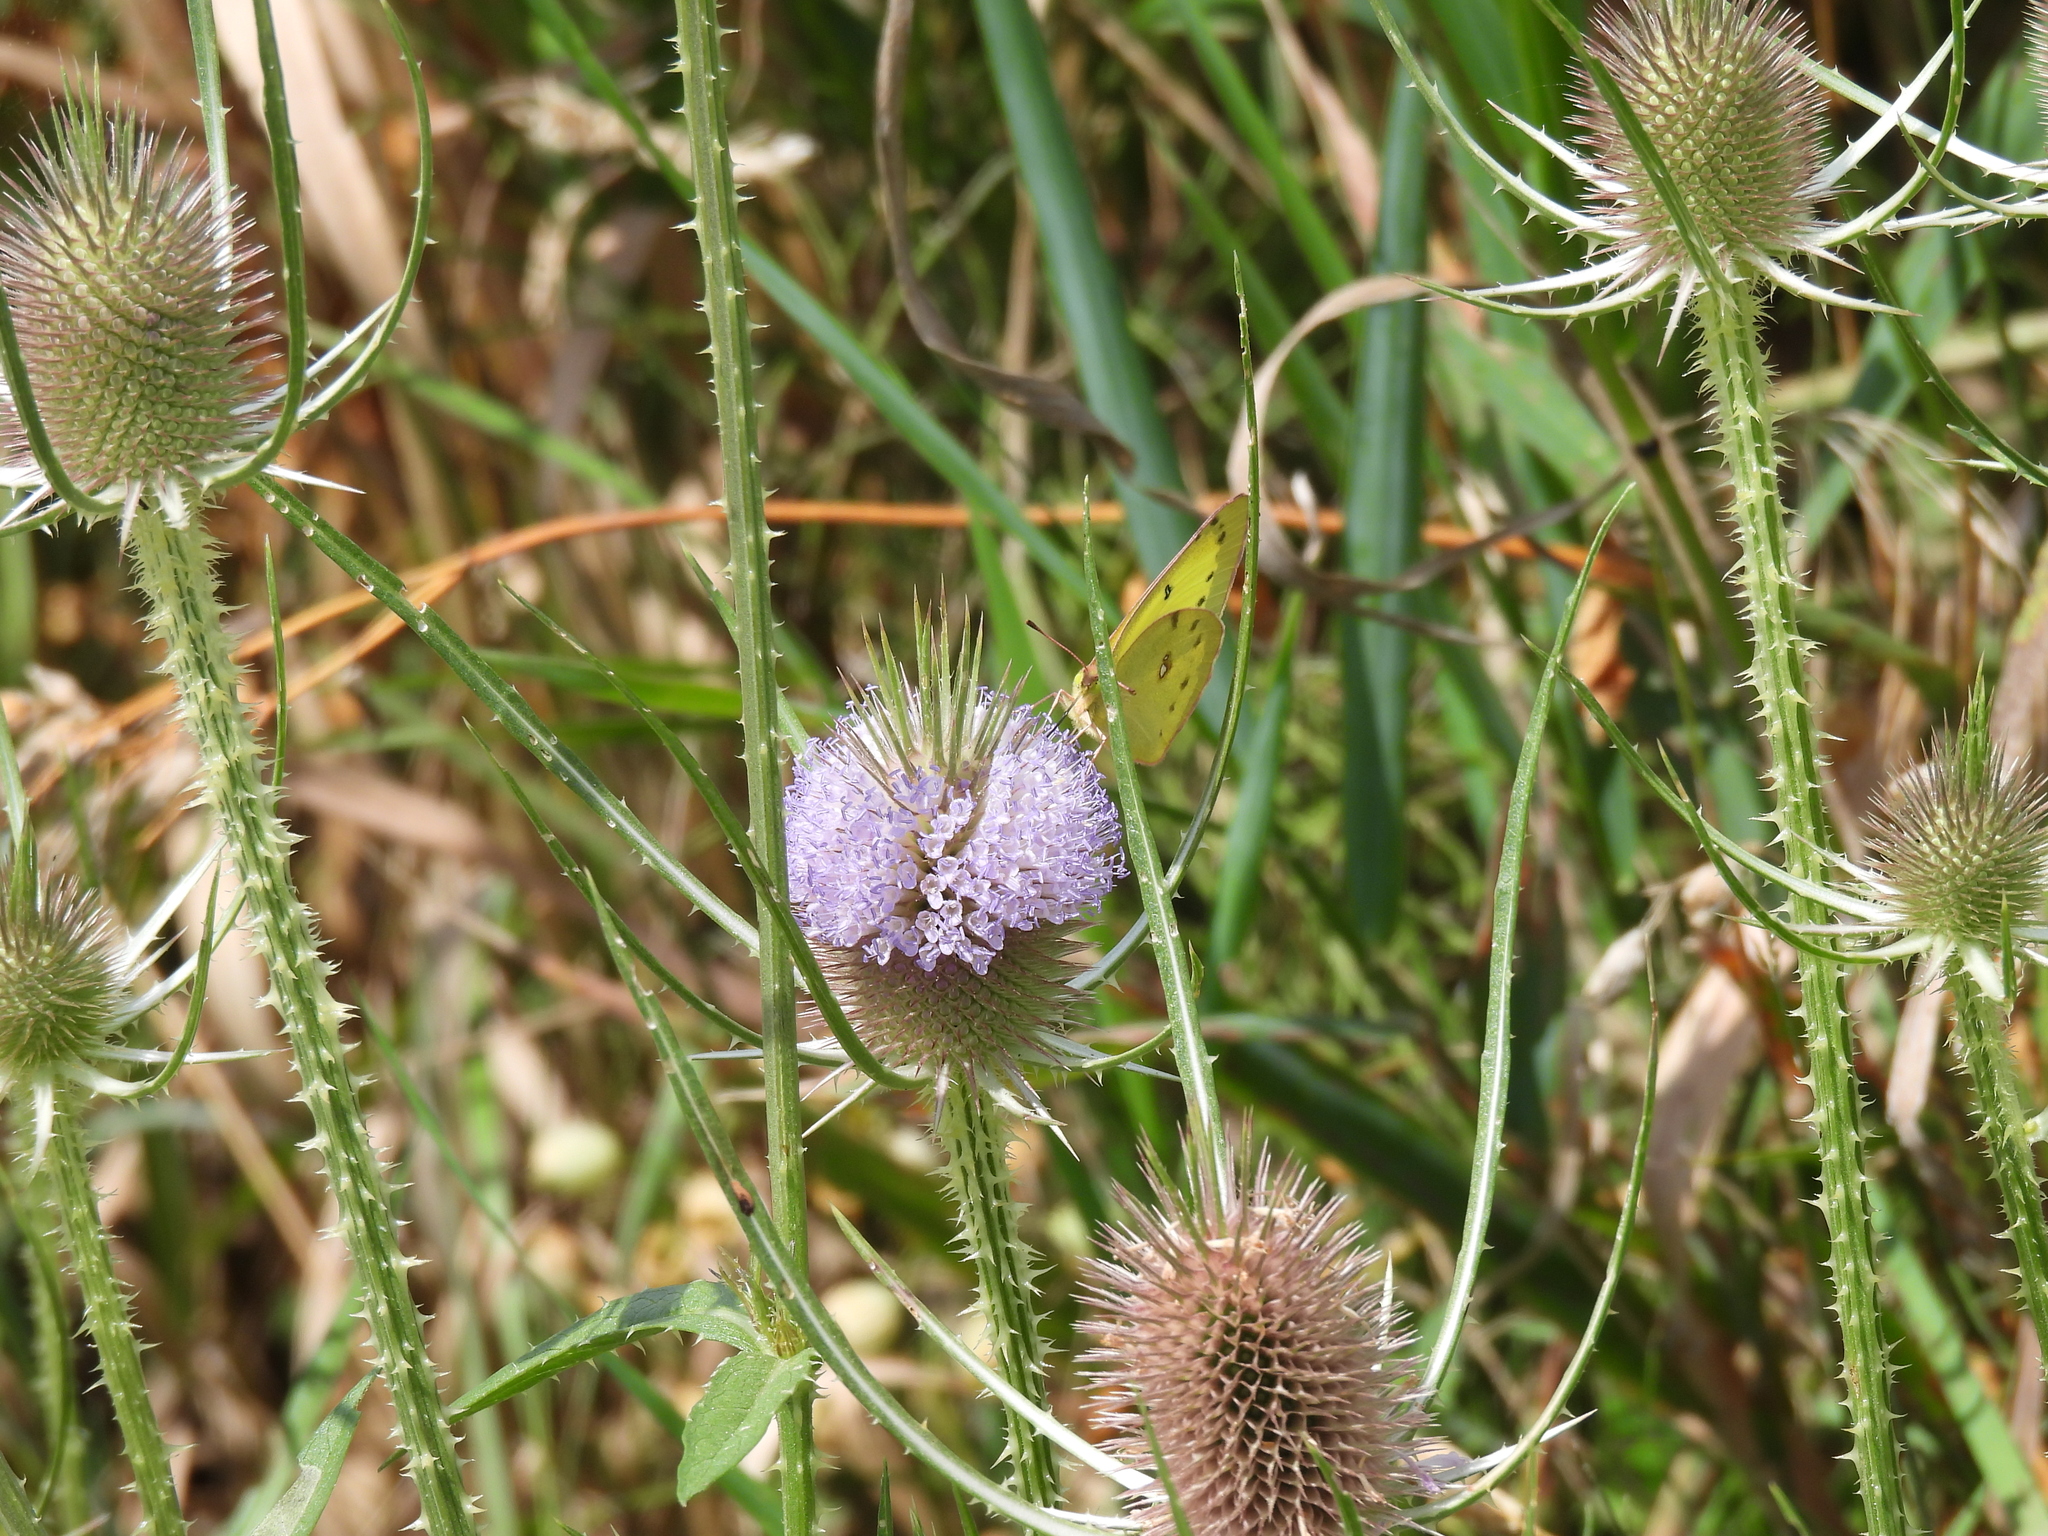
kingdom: Animalia
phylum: Arthropoda
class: Insecta
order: Lepidoptera
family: Pieridae
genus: Colias
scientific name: Colias philodice
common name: Clouded sulphur
